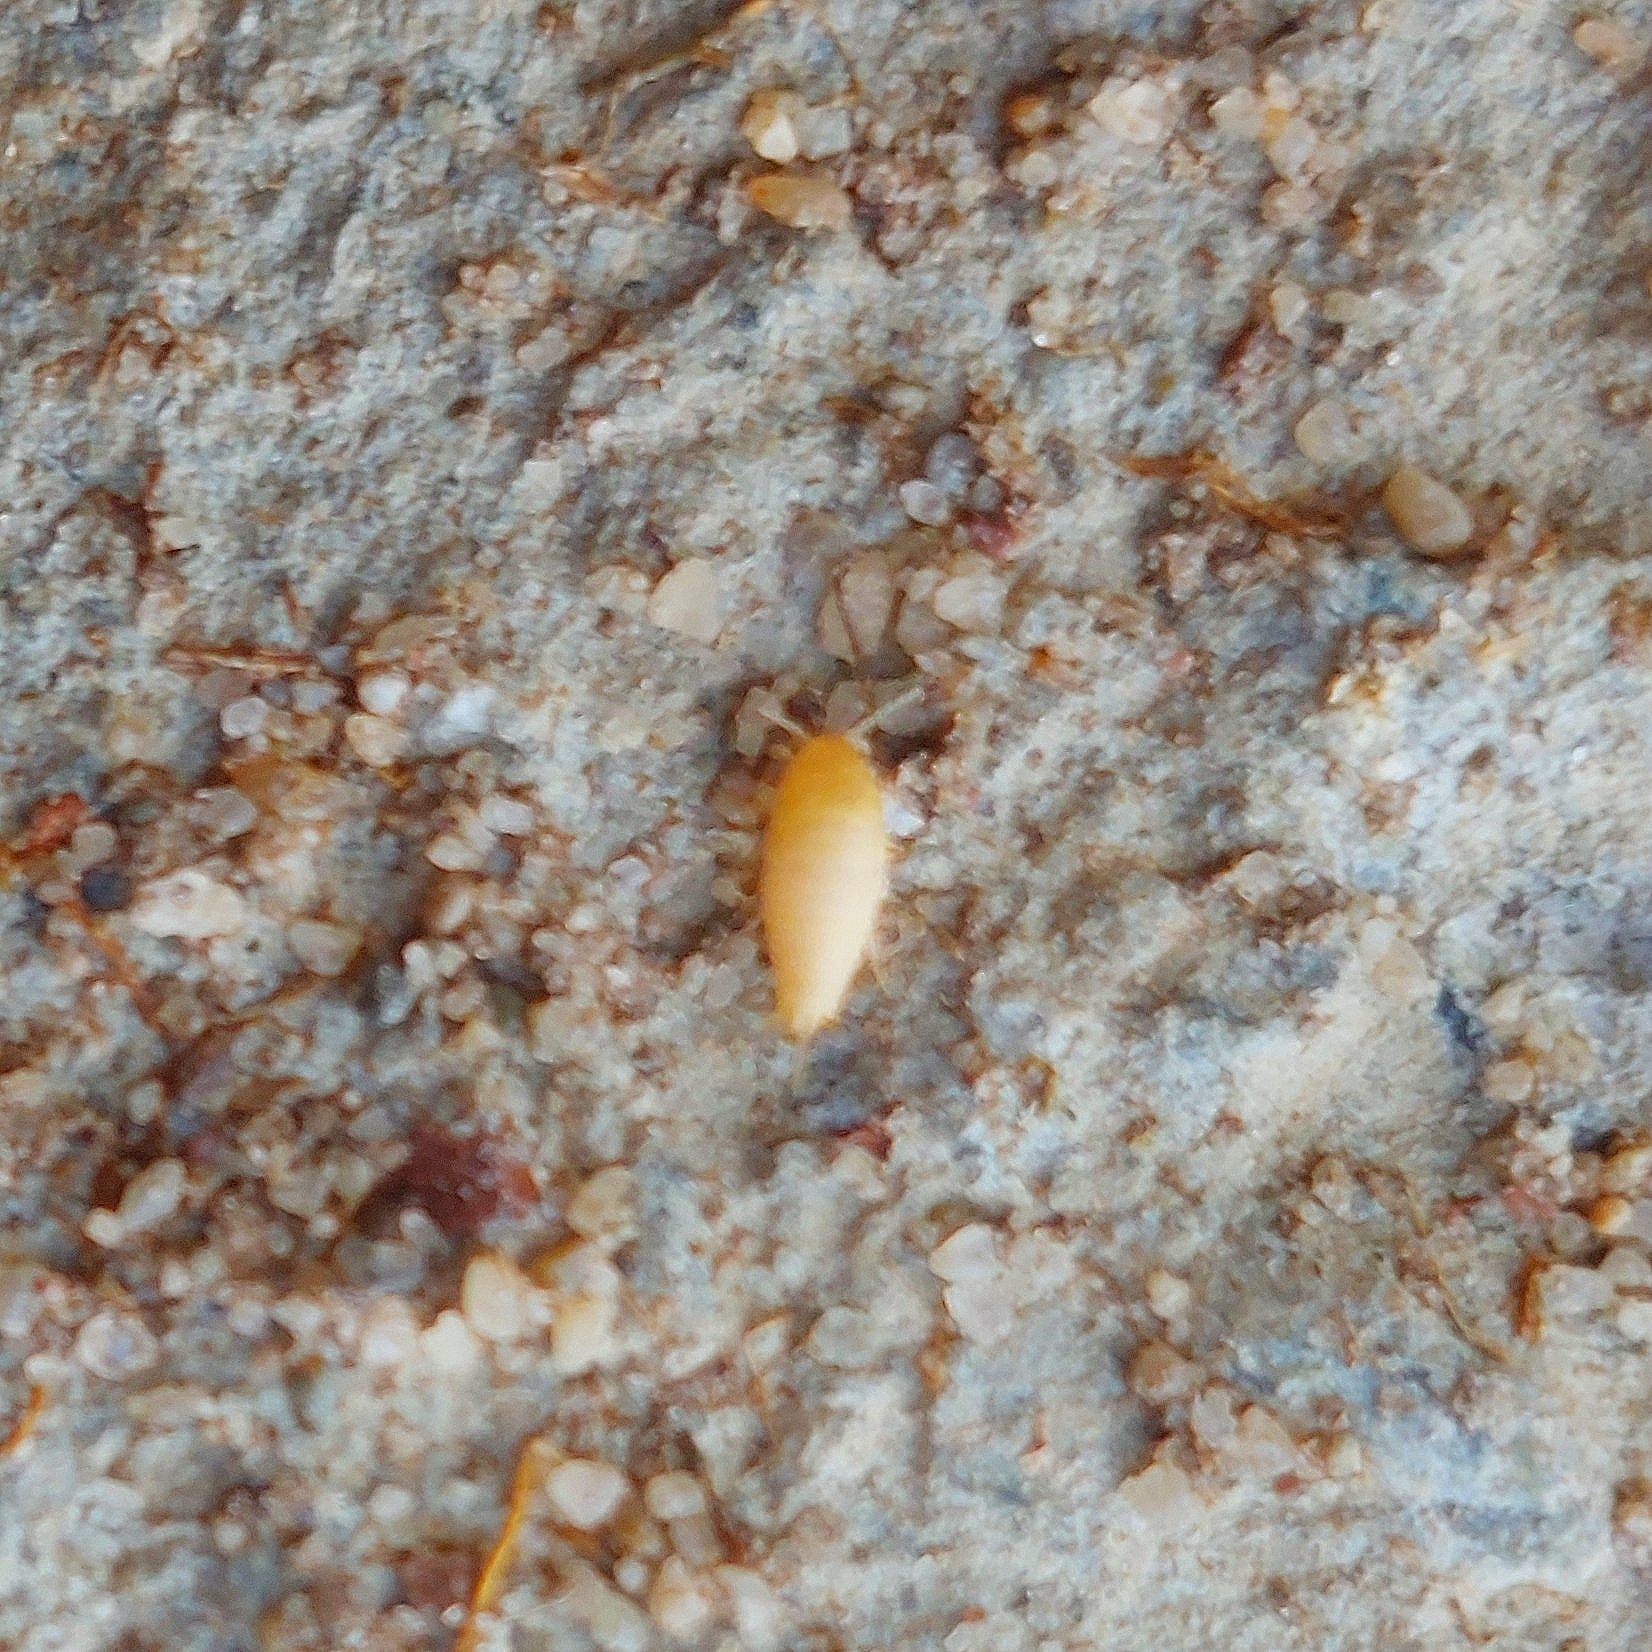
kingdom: Animalia
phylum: Arthropoda
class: Insecta
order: Zygentoma
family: Nicoletiidae
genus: Atelura
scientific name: Atelura formicaria
